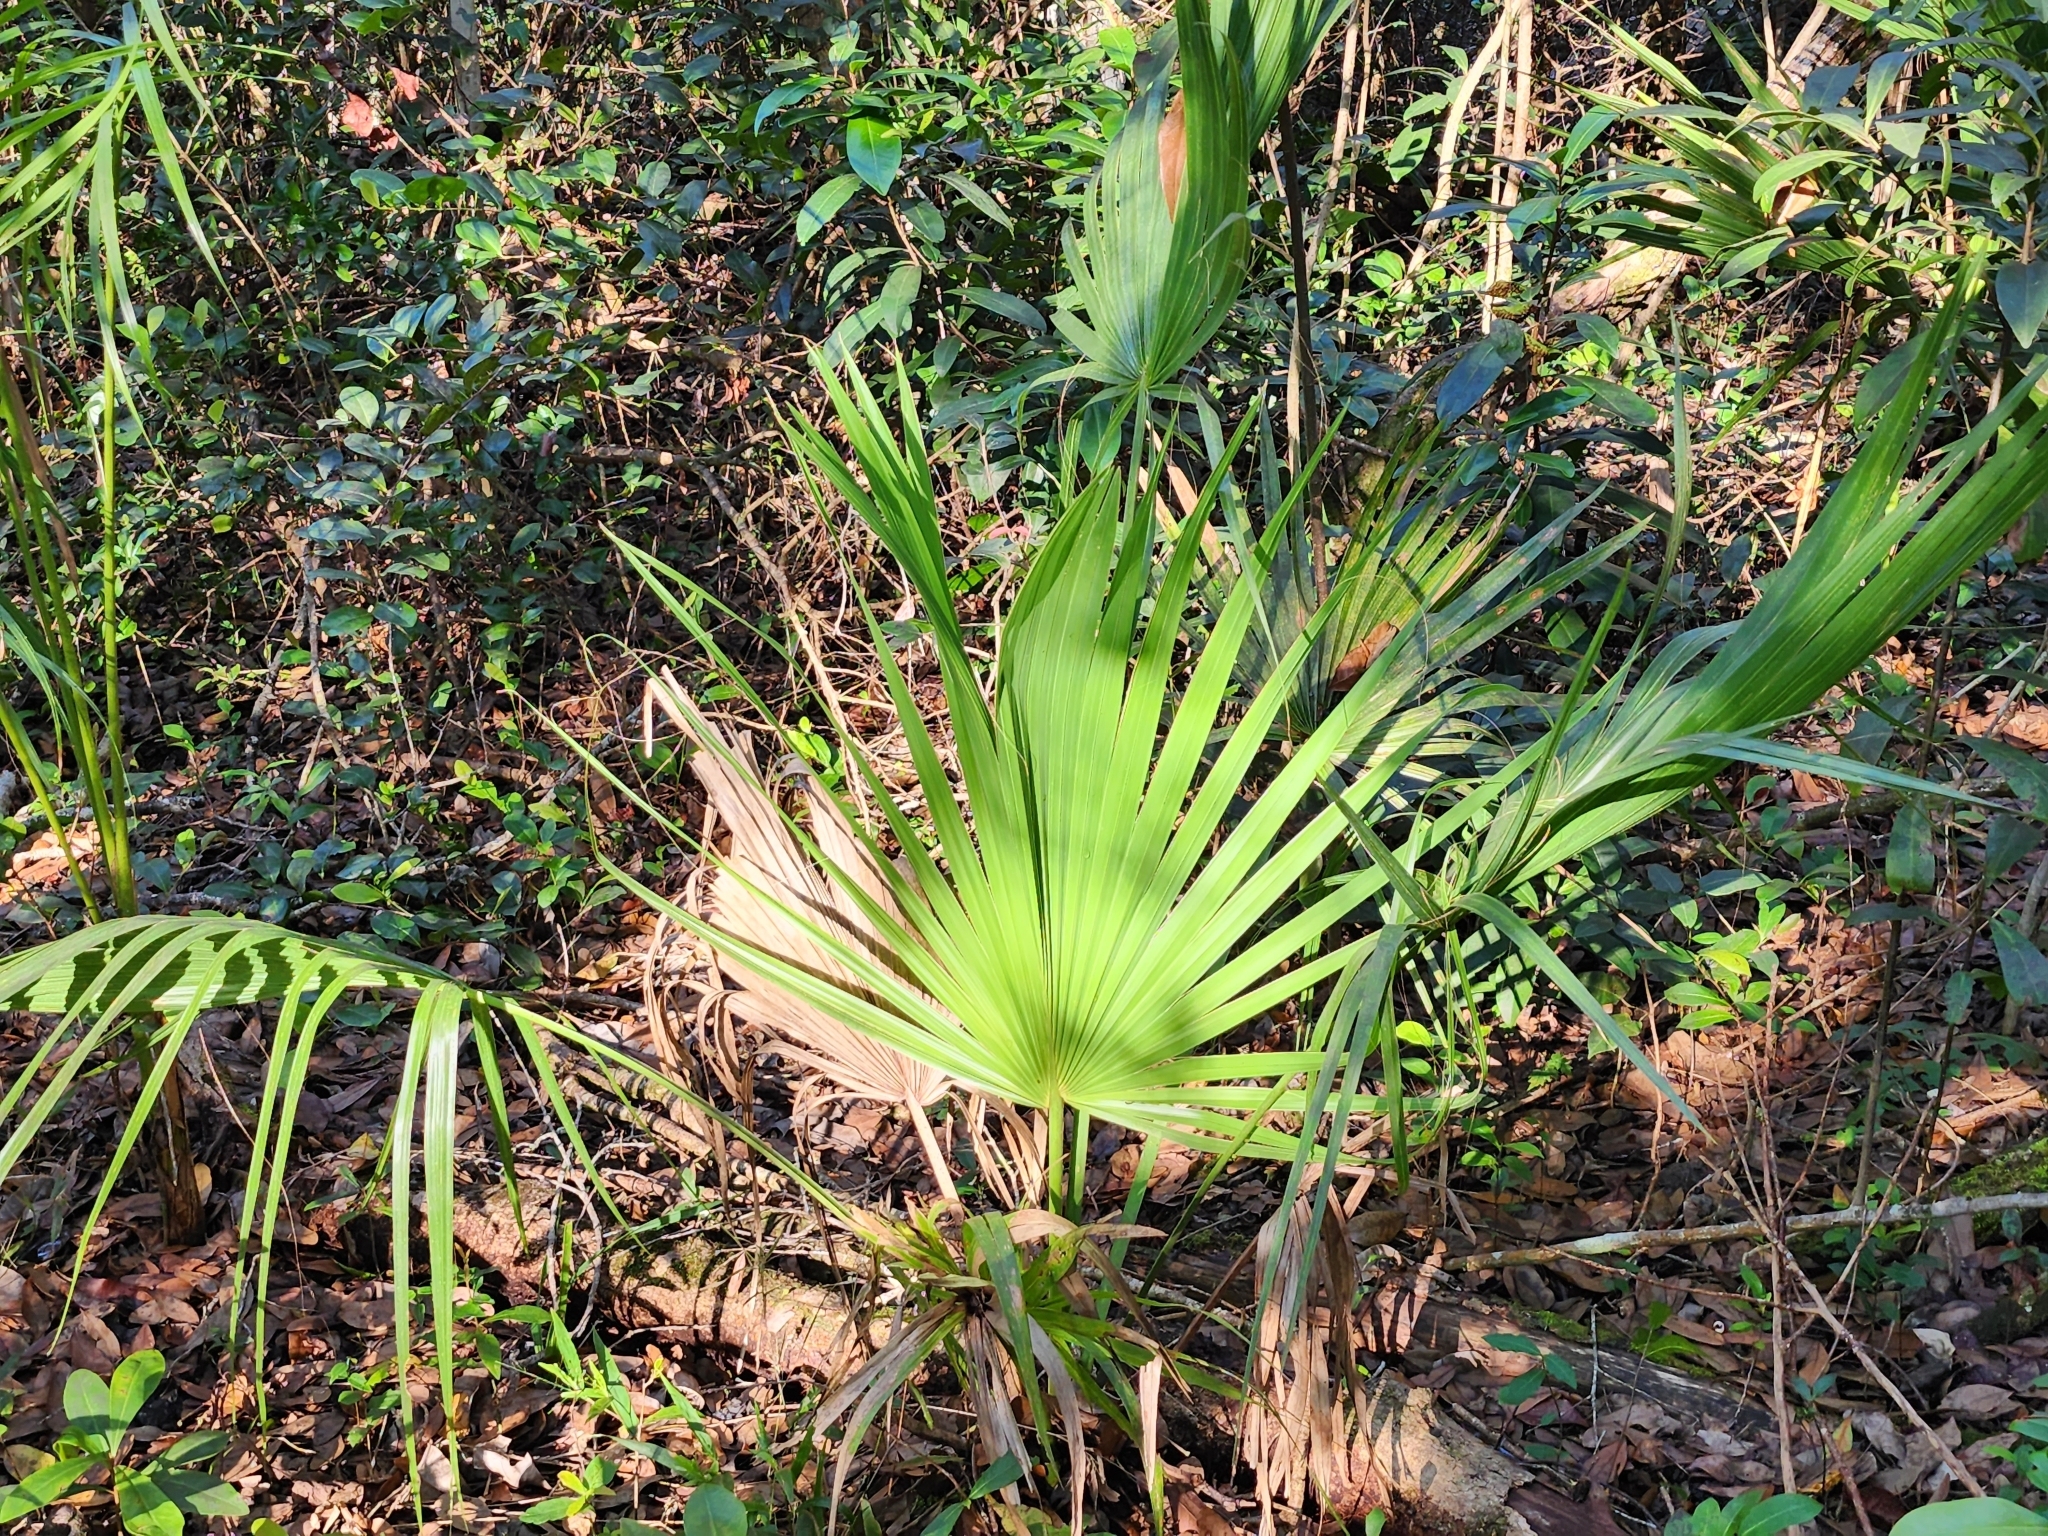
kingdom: Plantae
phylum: Tracheophyta
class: Liliopsida
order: Arecales
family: Arecaceae
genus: Sabal
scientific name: Sabal palmetto
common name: Blue palmetto
